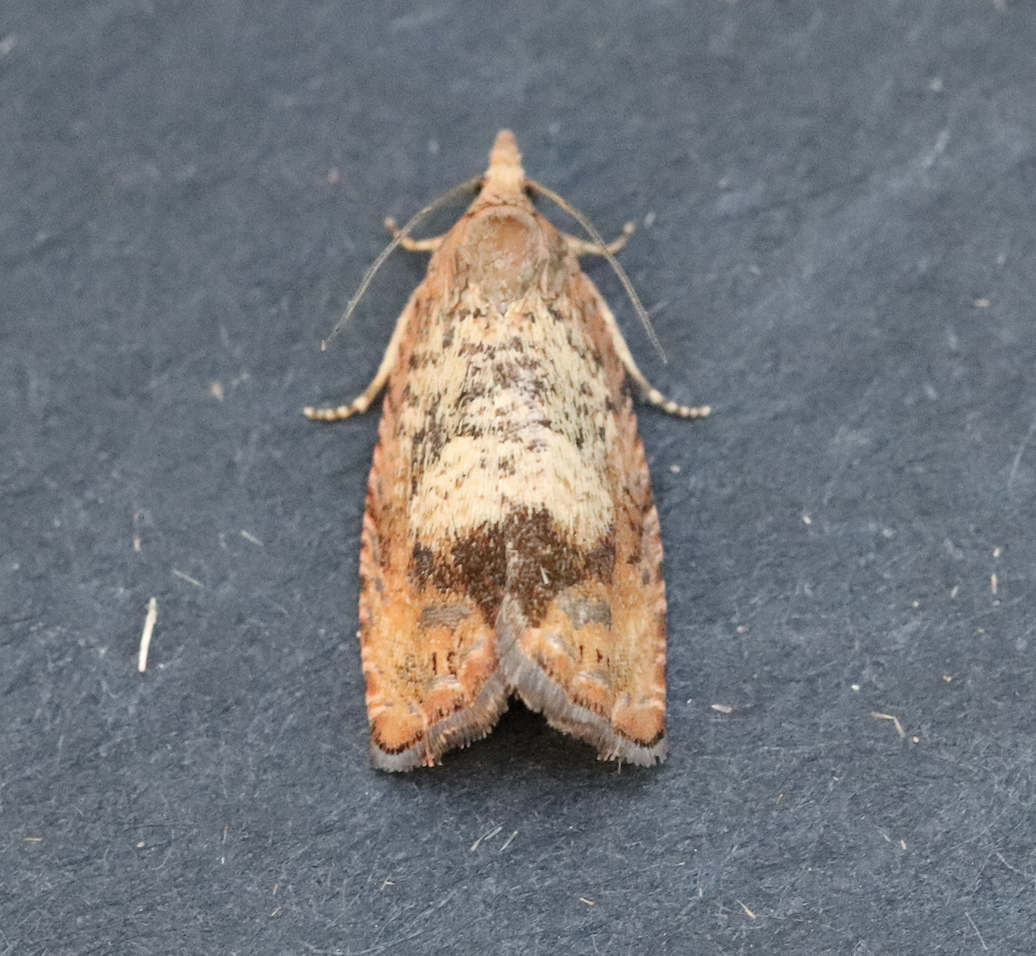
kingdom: Animalia
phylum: Arthropoda
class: Insecta
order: Lepidoptera
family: Tortricidae
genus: Cydia
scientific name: Cydia amplana
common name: Vagrant piercer
